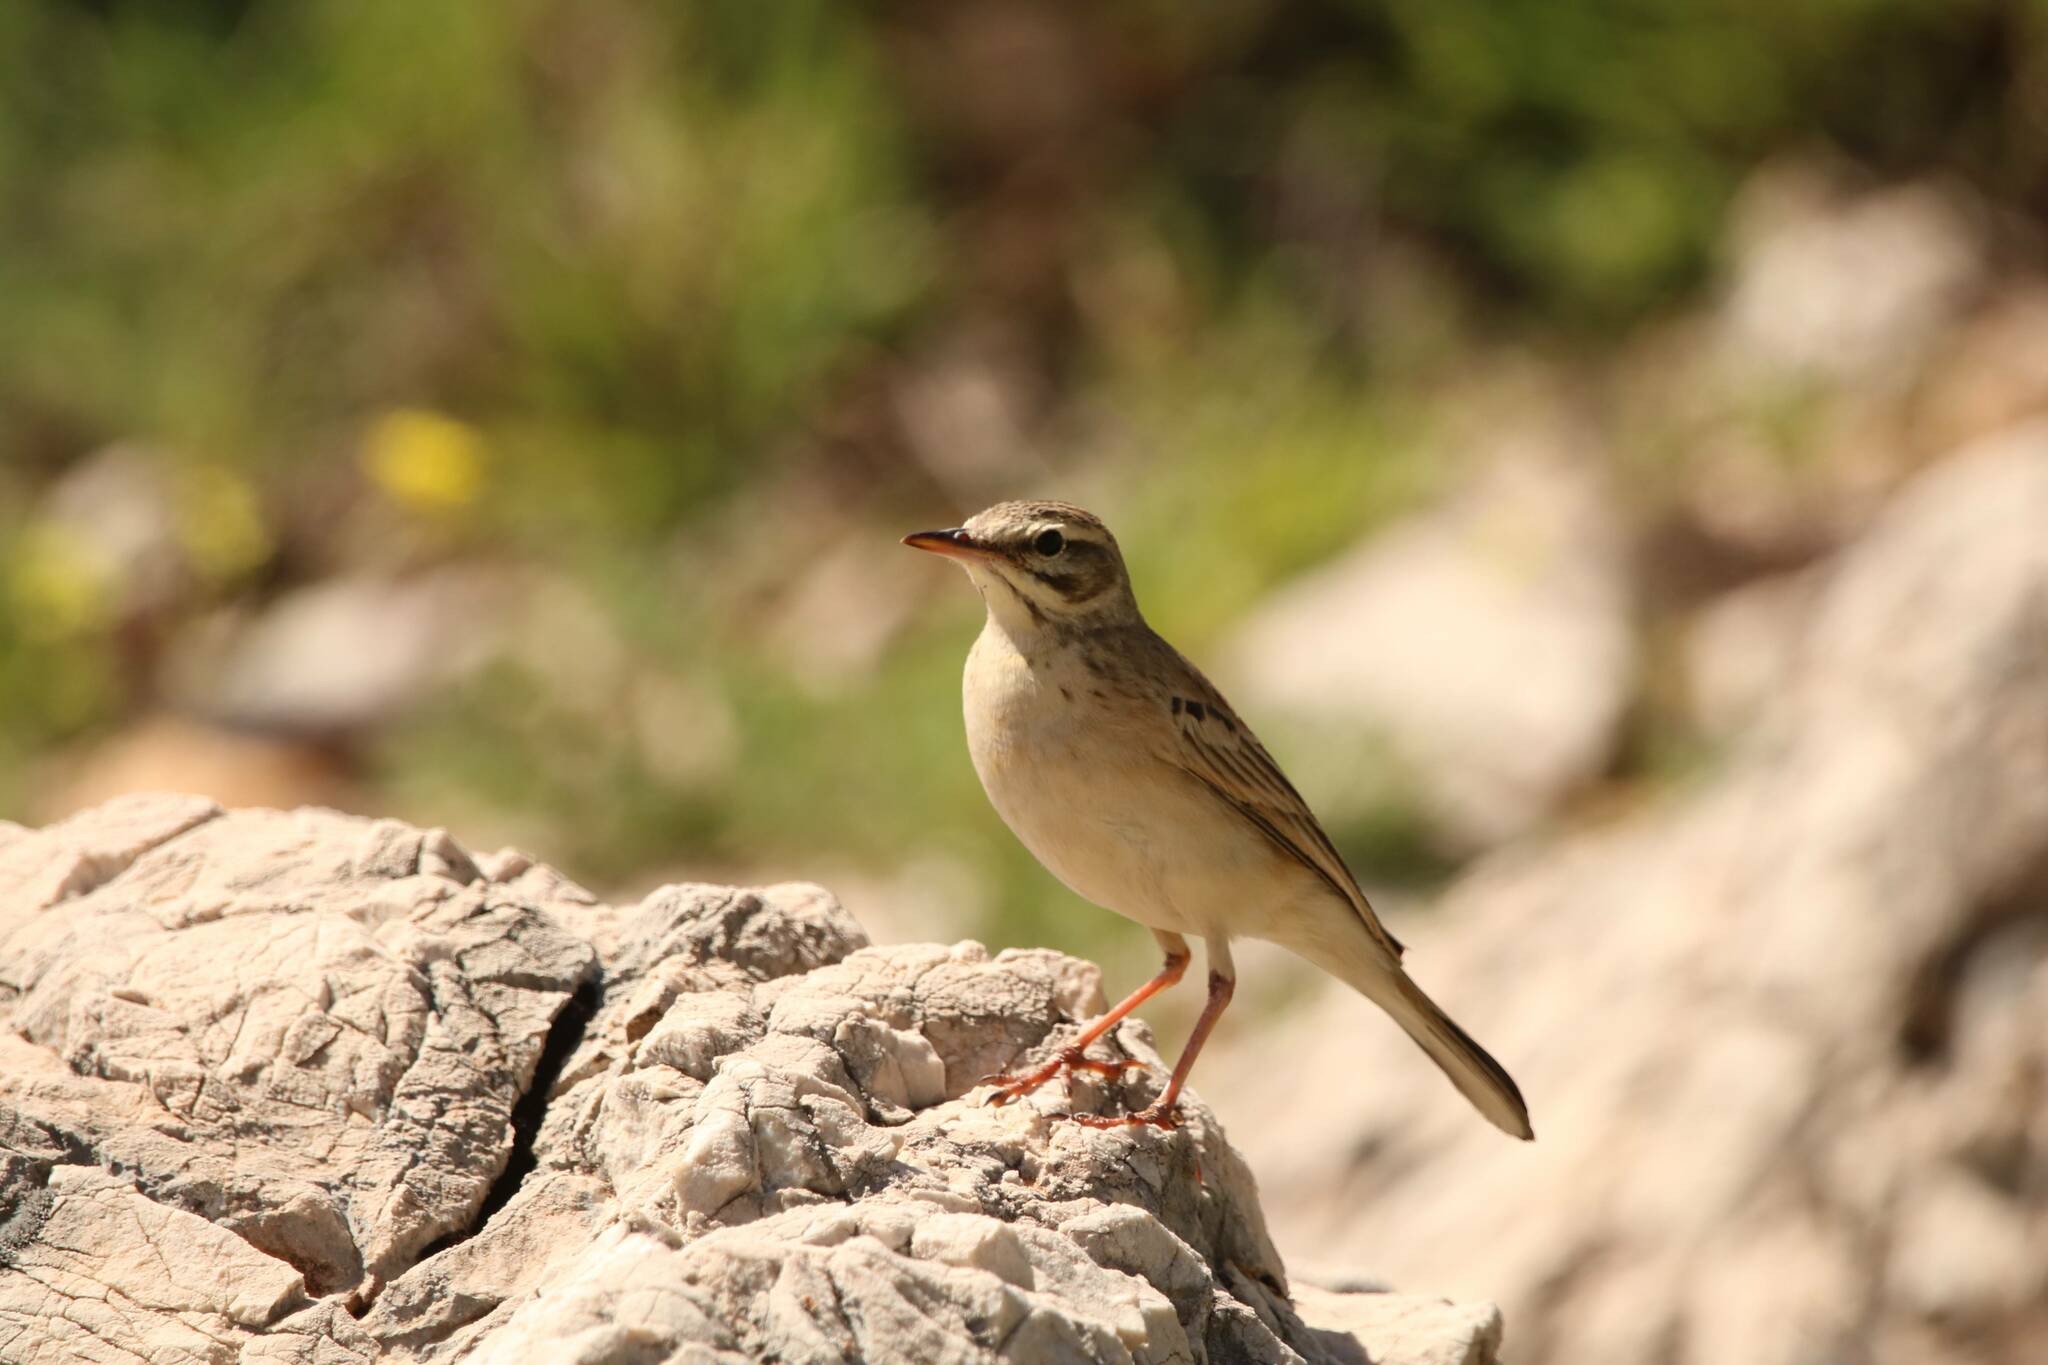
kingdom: Animalia
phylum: Chordata
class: Aves
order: Passeriformes
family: Motacillidae
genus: Anthus
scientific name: Anthus campestris
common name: Tawny pipit
